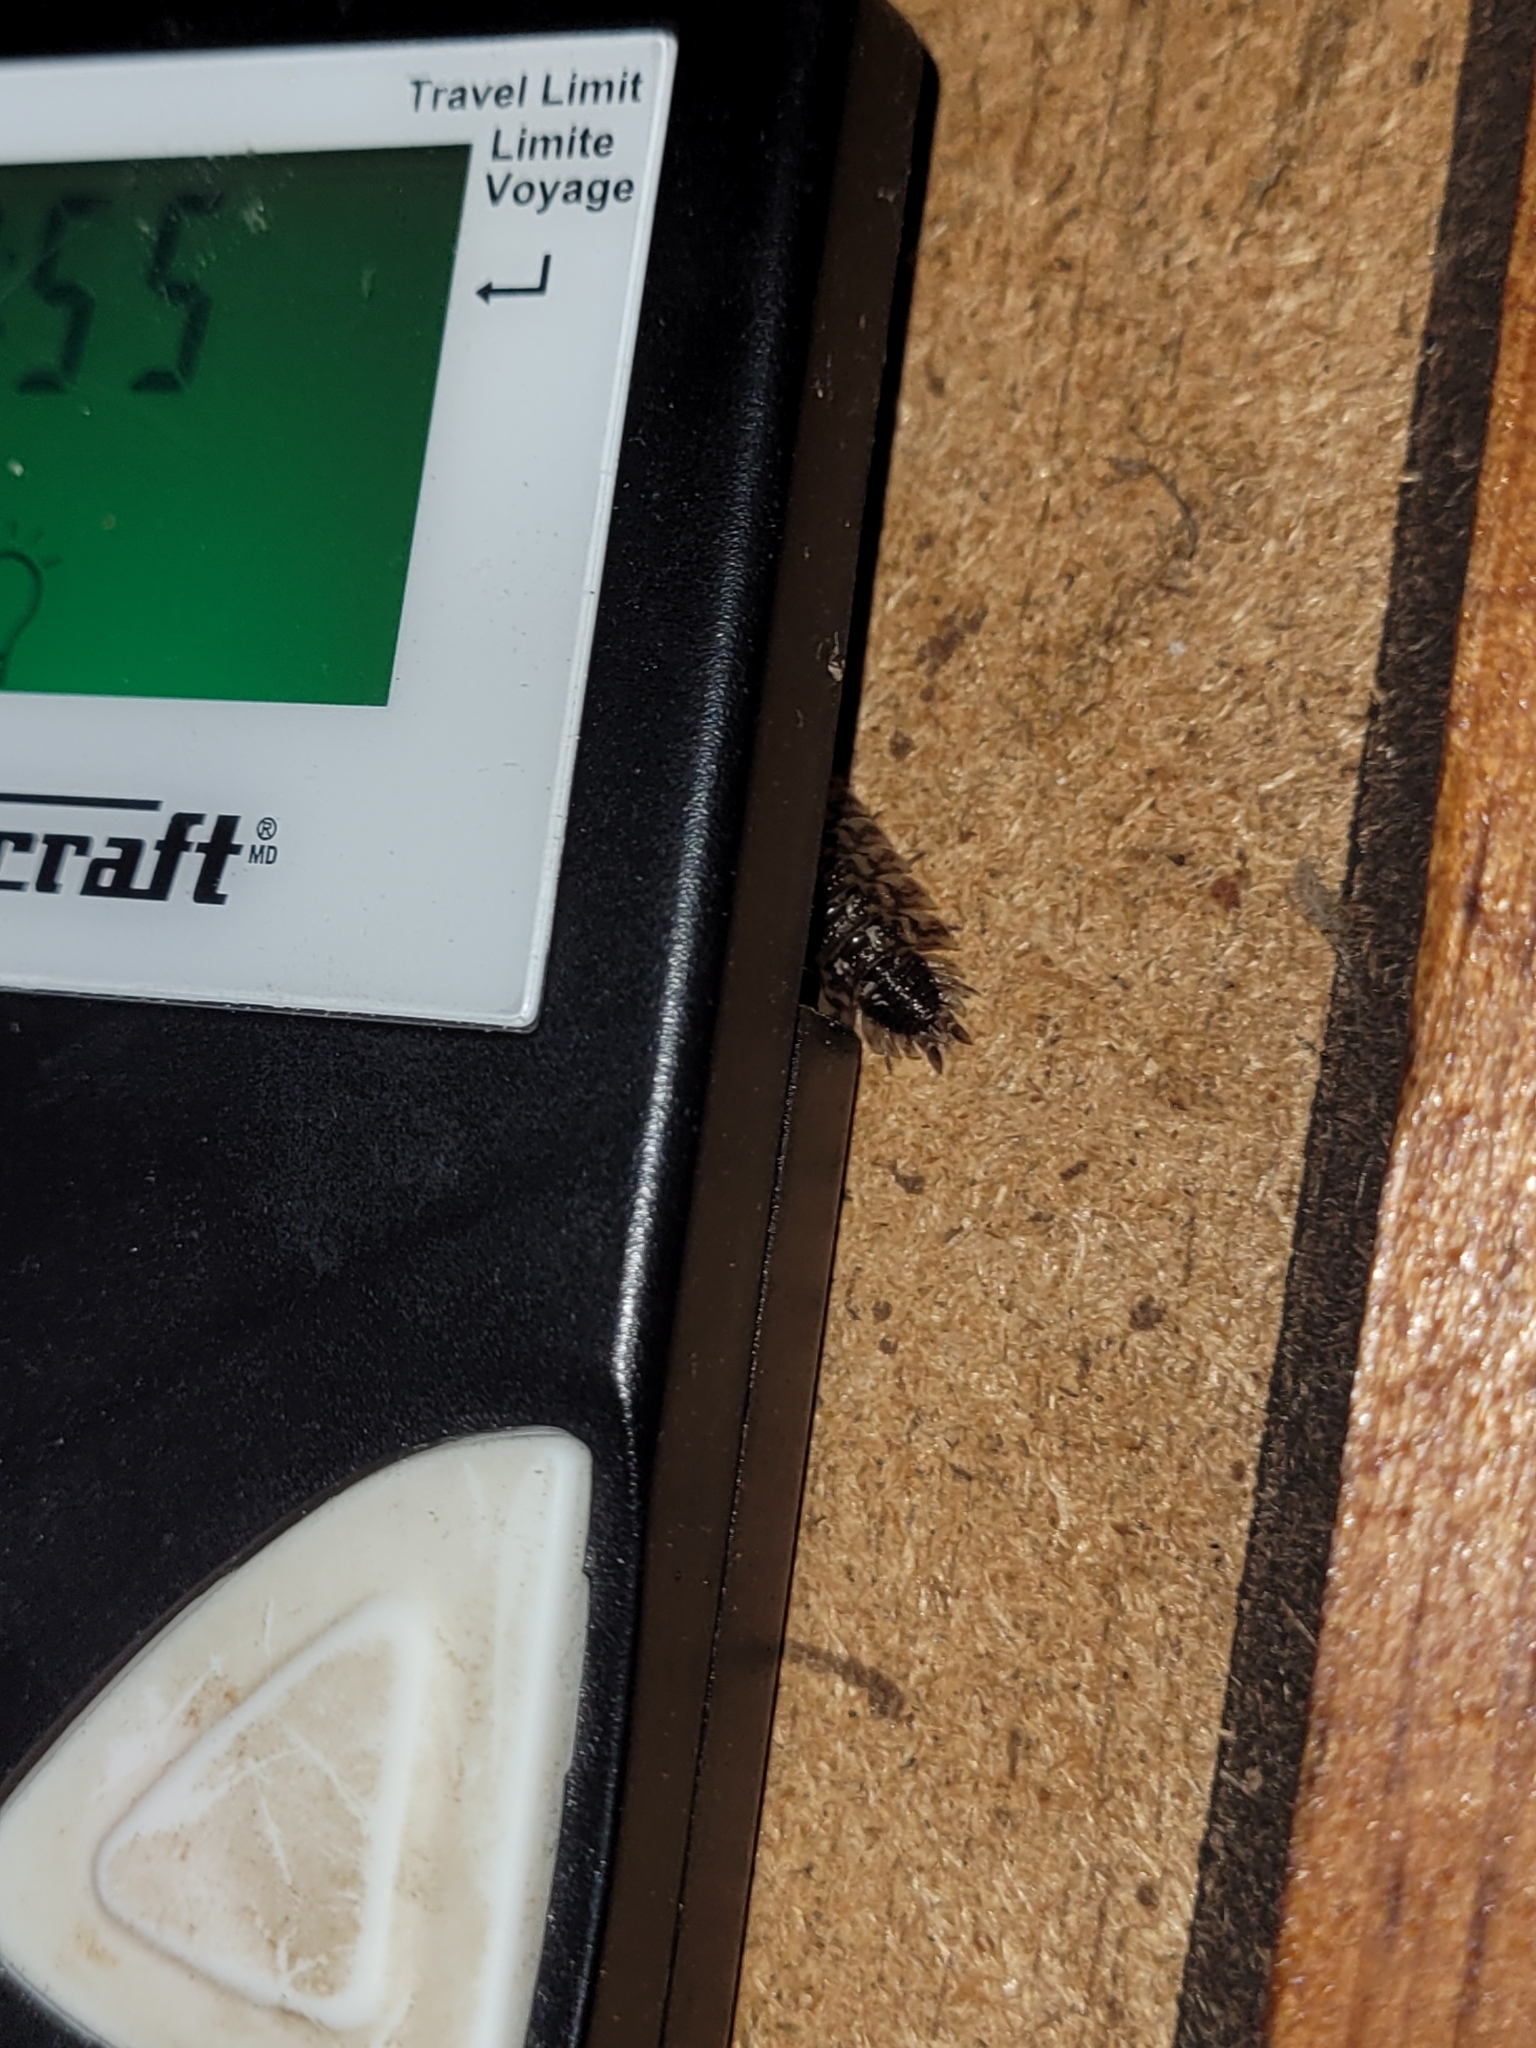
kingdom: Animalia
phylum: Arthropoda
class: Malacostraca
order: Isopoda
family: Porcellionidae
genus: Porcellio
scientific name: Porcellio spinicornis
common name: Painted woodlouse
